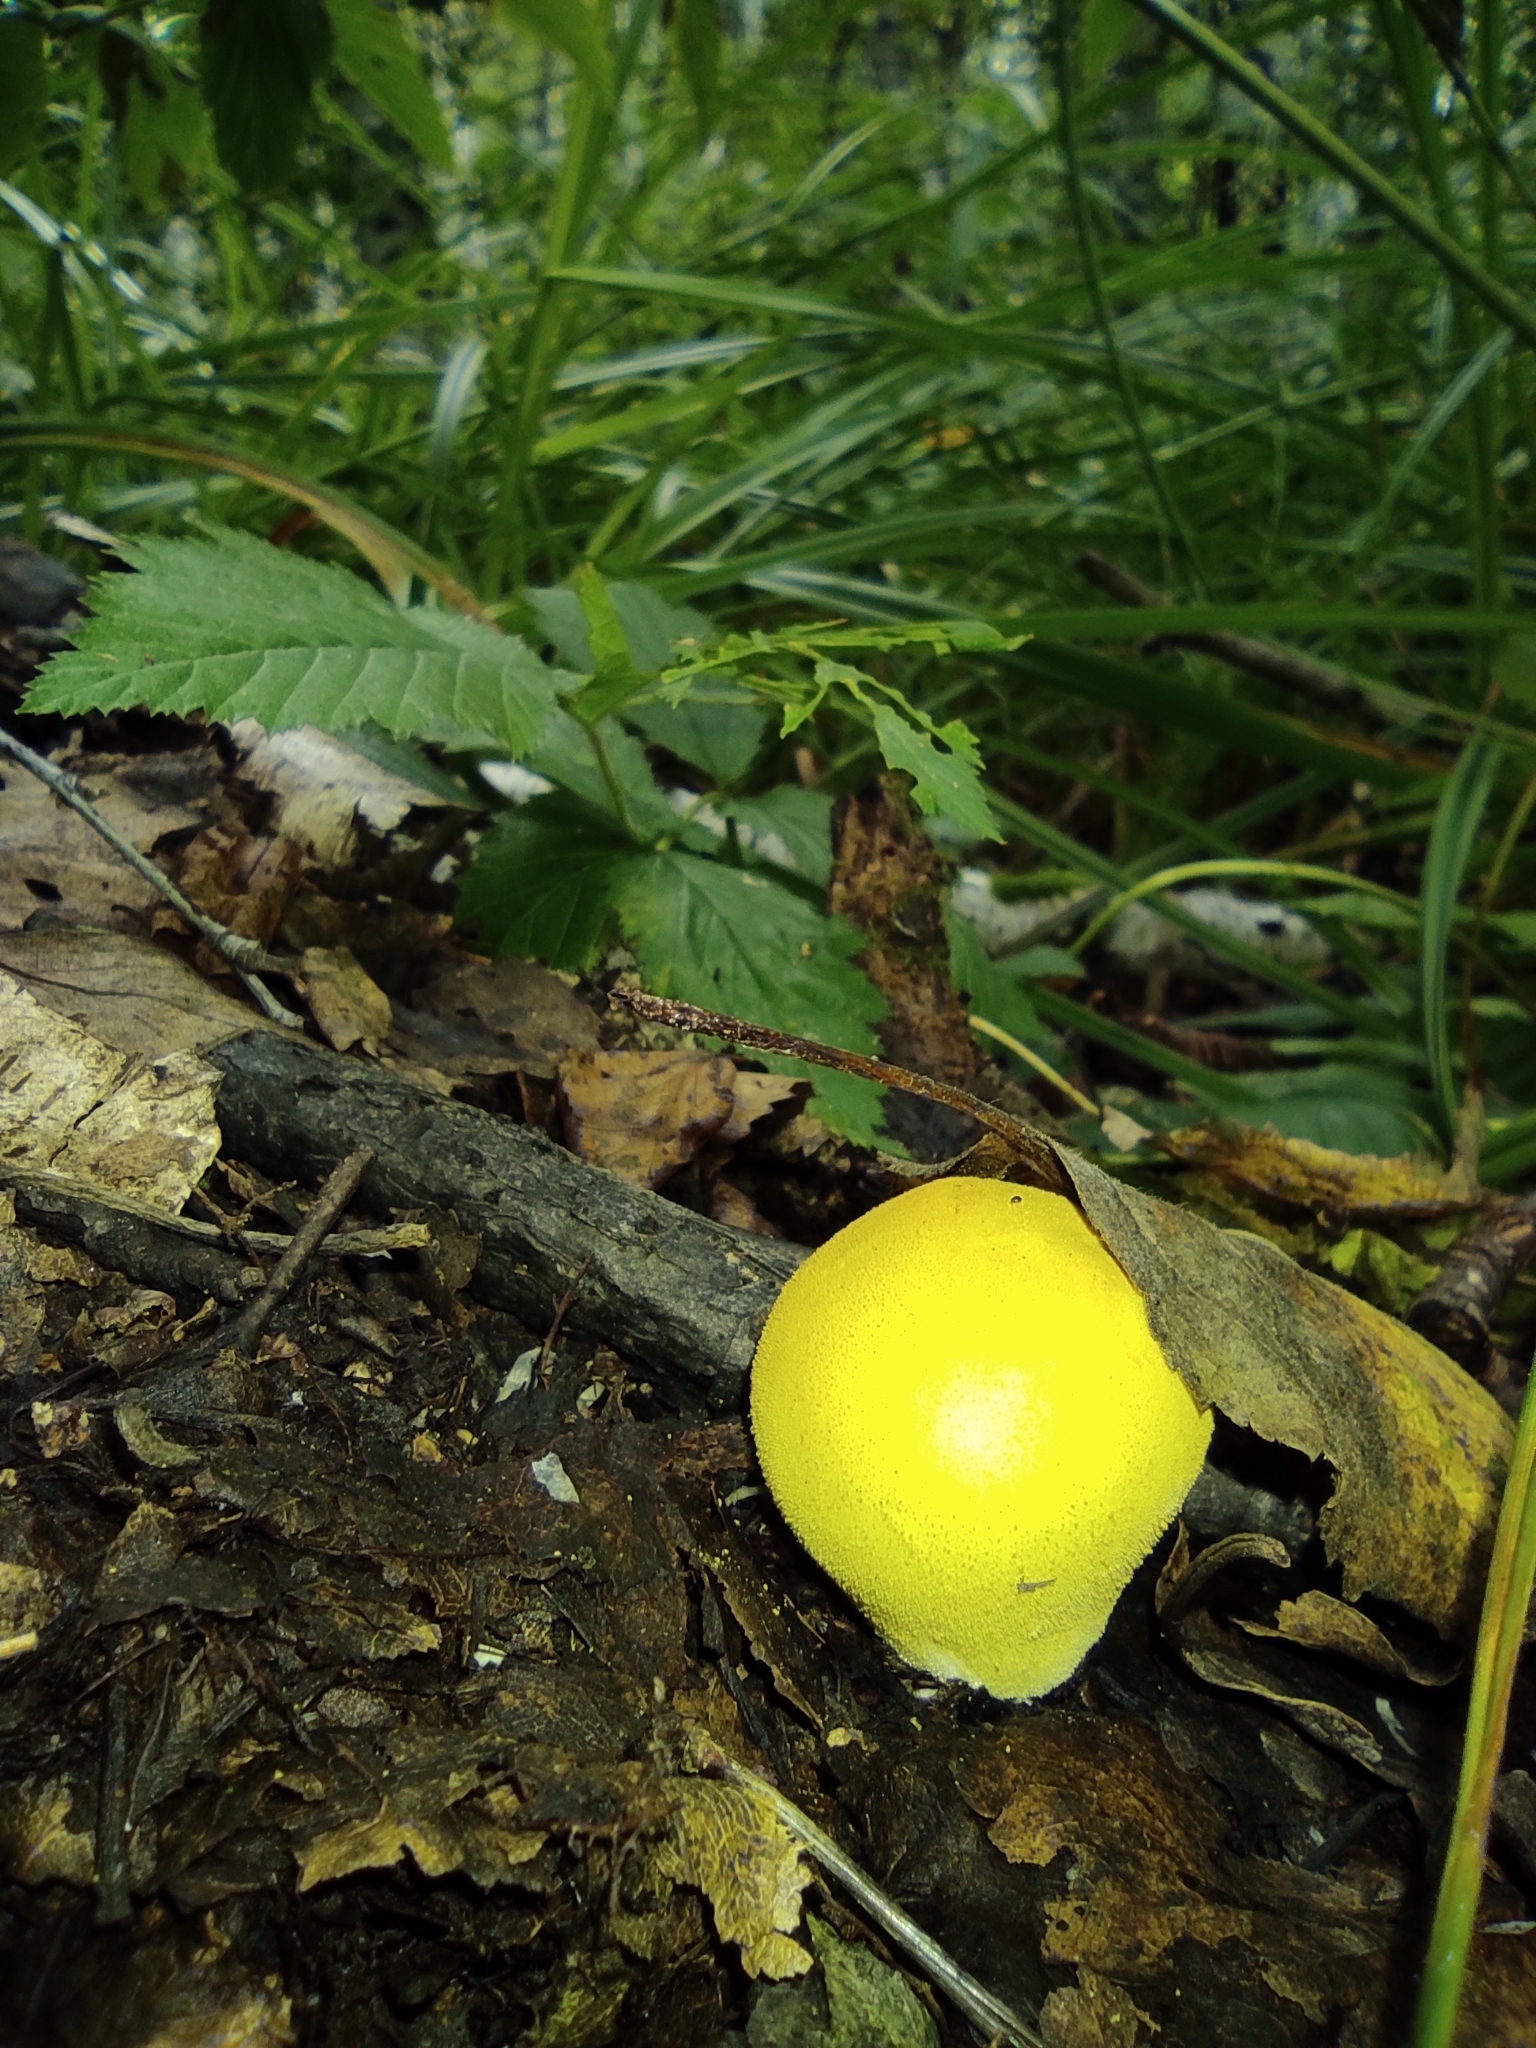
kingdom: Fungi
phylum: Basidiomycota
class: Agaricomycetes
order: Agaricales
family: Lycoperdaceae
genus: Lycoperdon
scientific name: Lycoperdon flavotinctum
